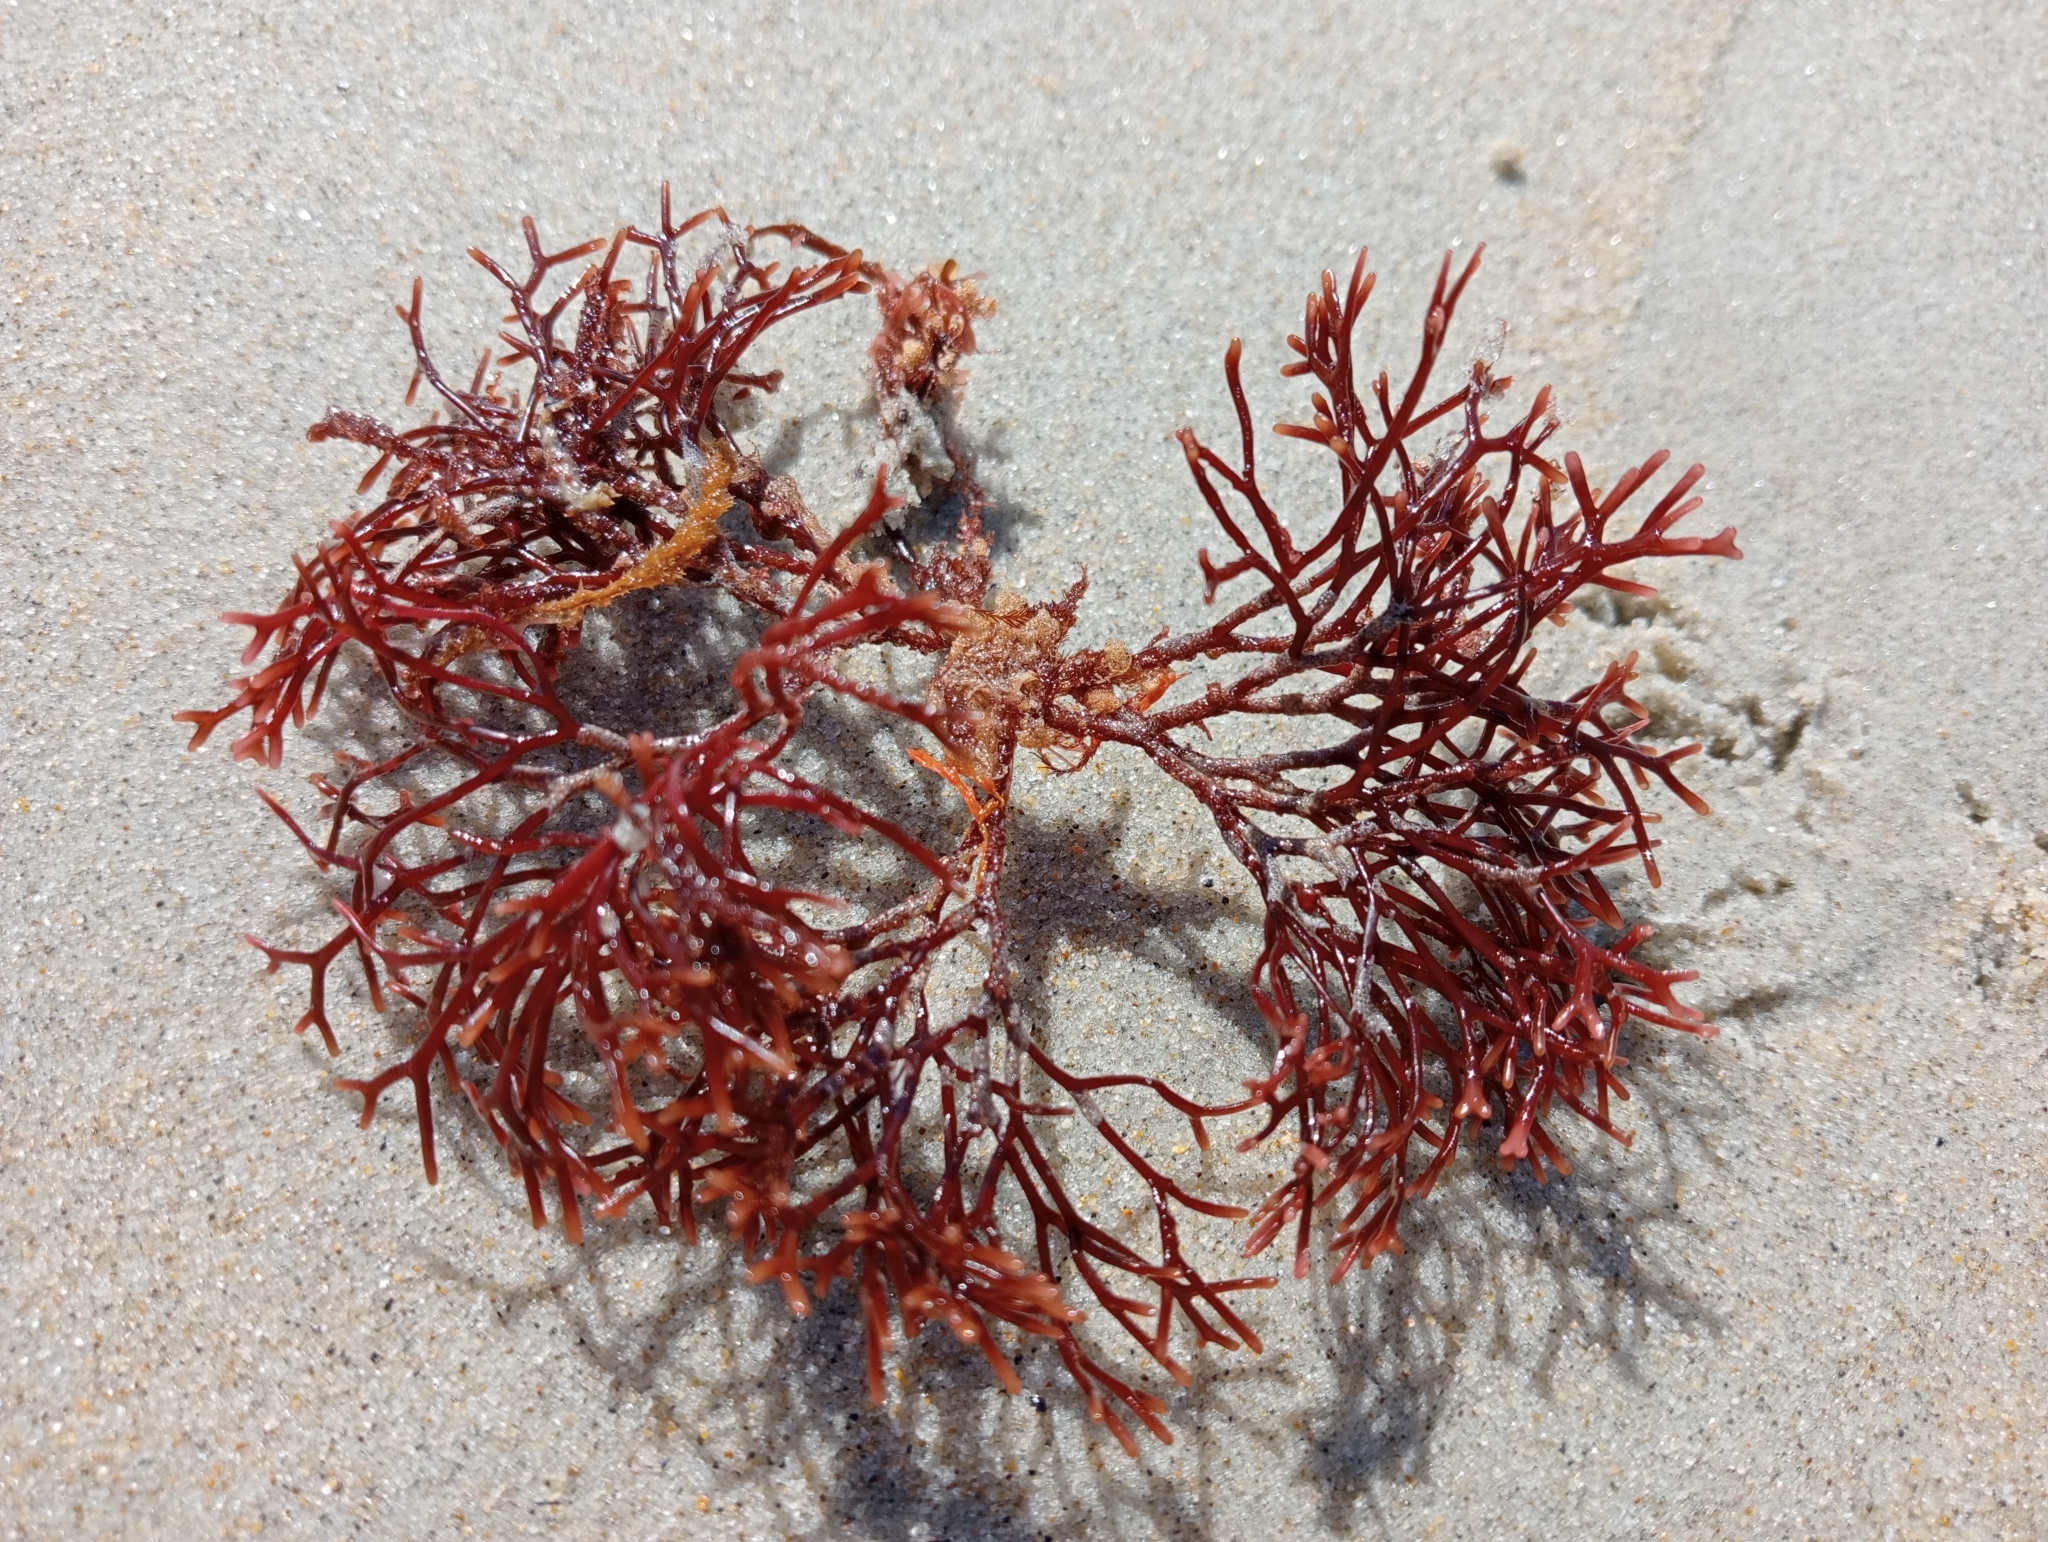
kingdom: Plantae
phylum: Rhodophyta
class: Florideophyceae
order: Gigartinales
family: Phyllophoraceae
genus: Gymnogongrus
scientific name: Gymnogongrus furcatus
